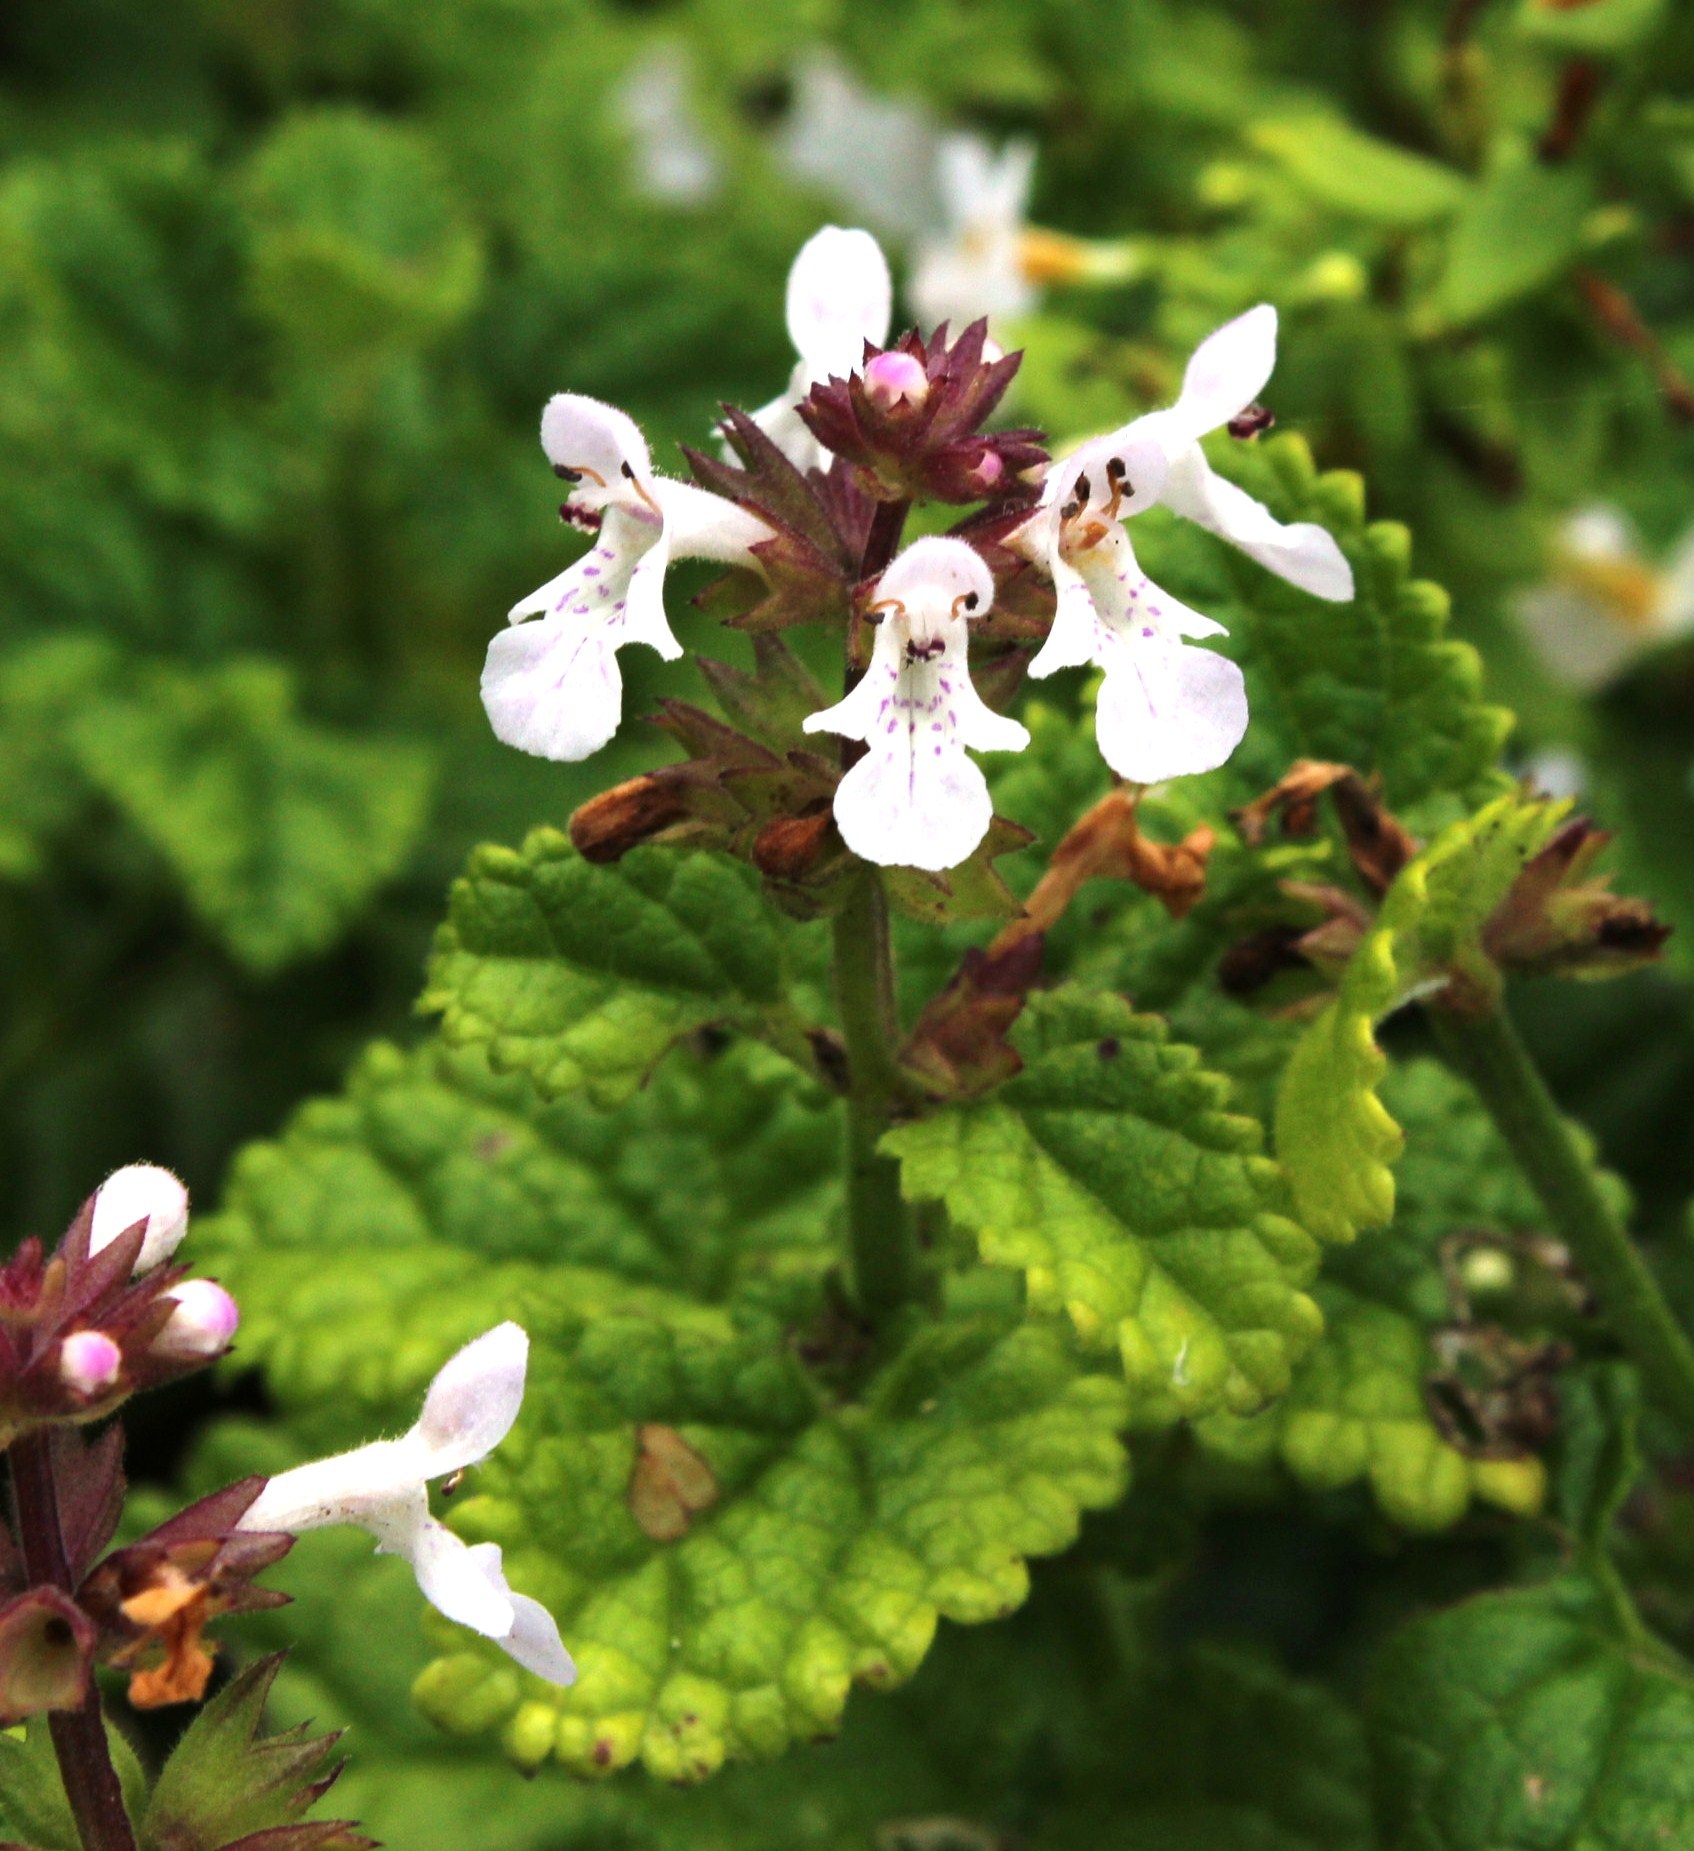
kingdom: Plantae
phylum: Tracheophyta
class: Magnoliopsida
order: Lamiales
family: Lamiaceae
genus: Stachys
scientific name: Stachys aethiopica
